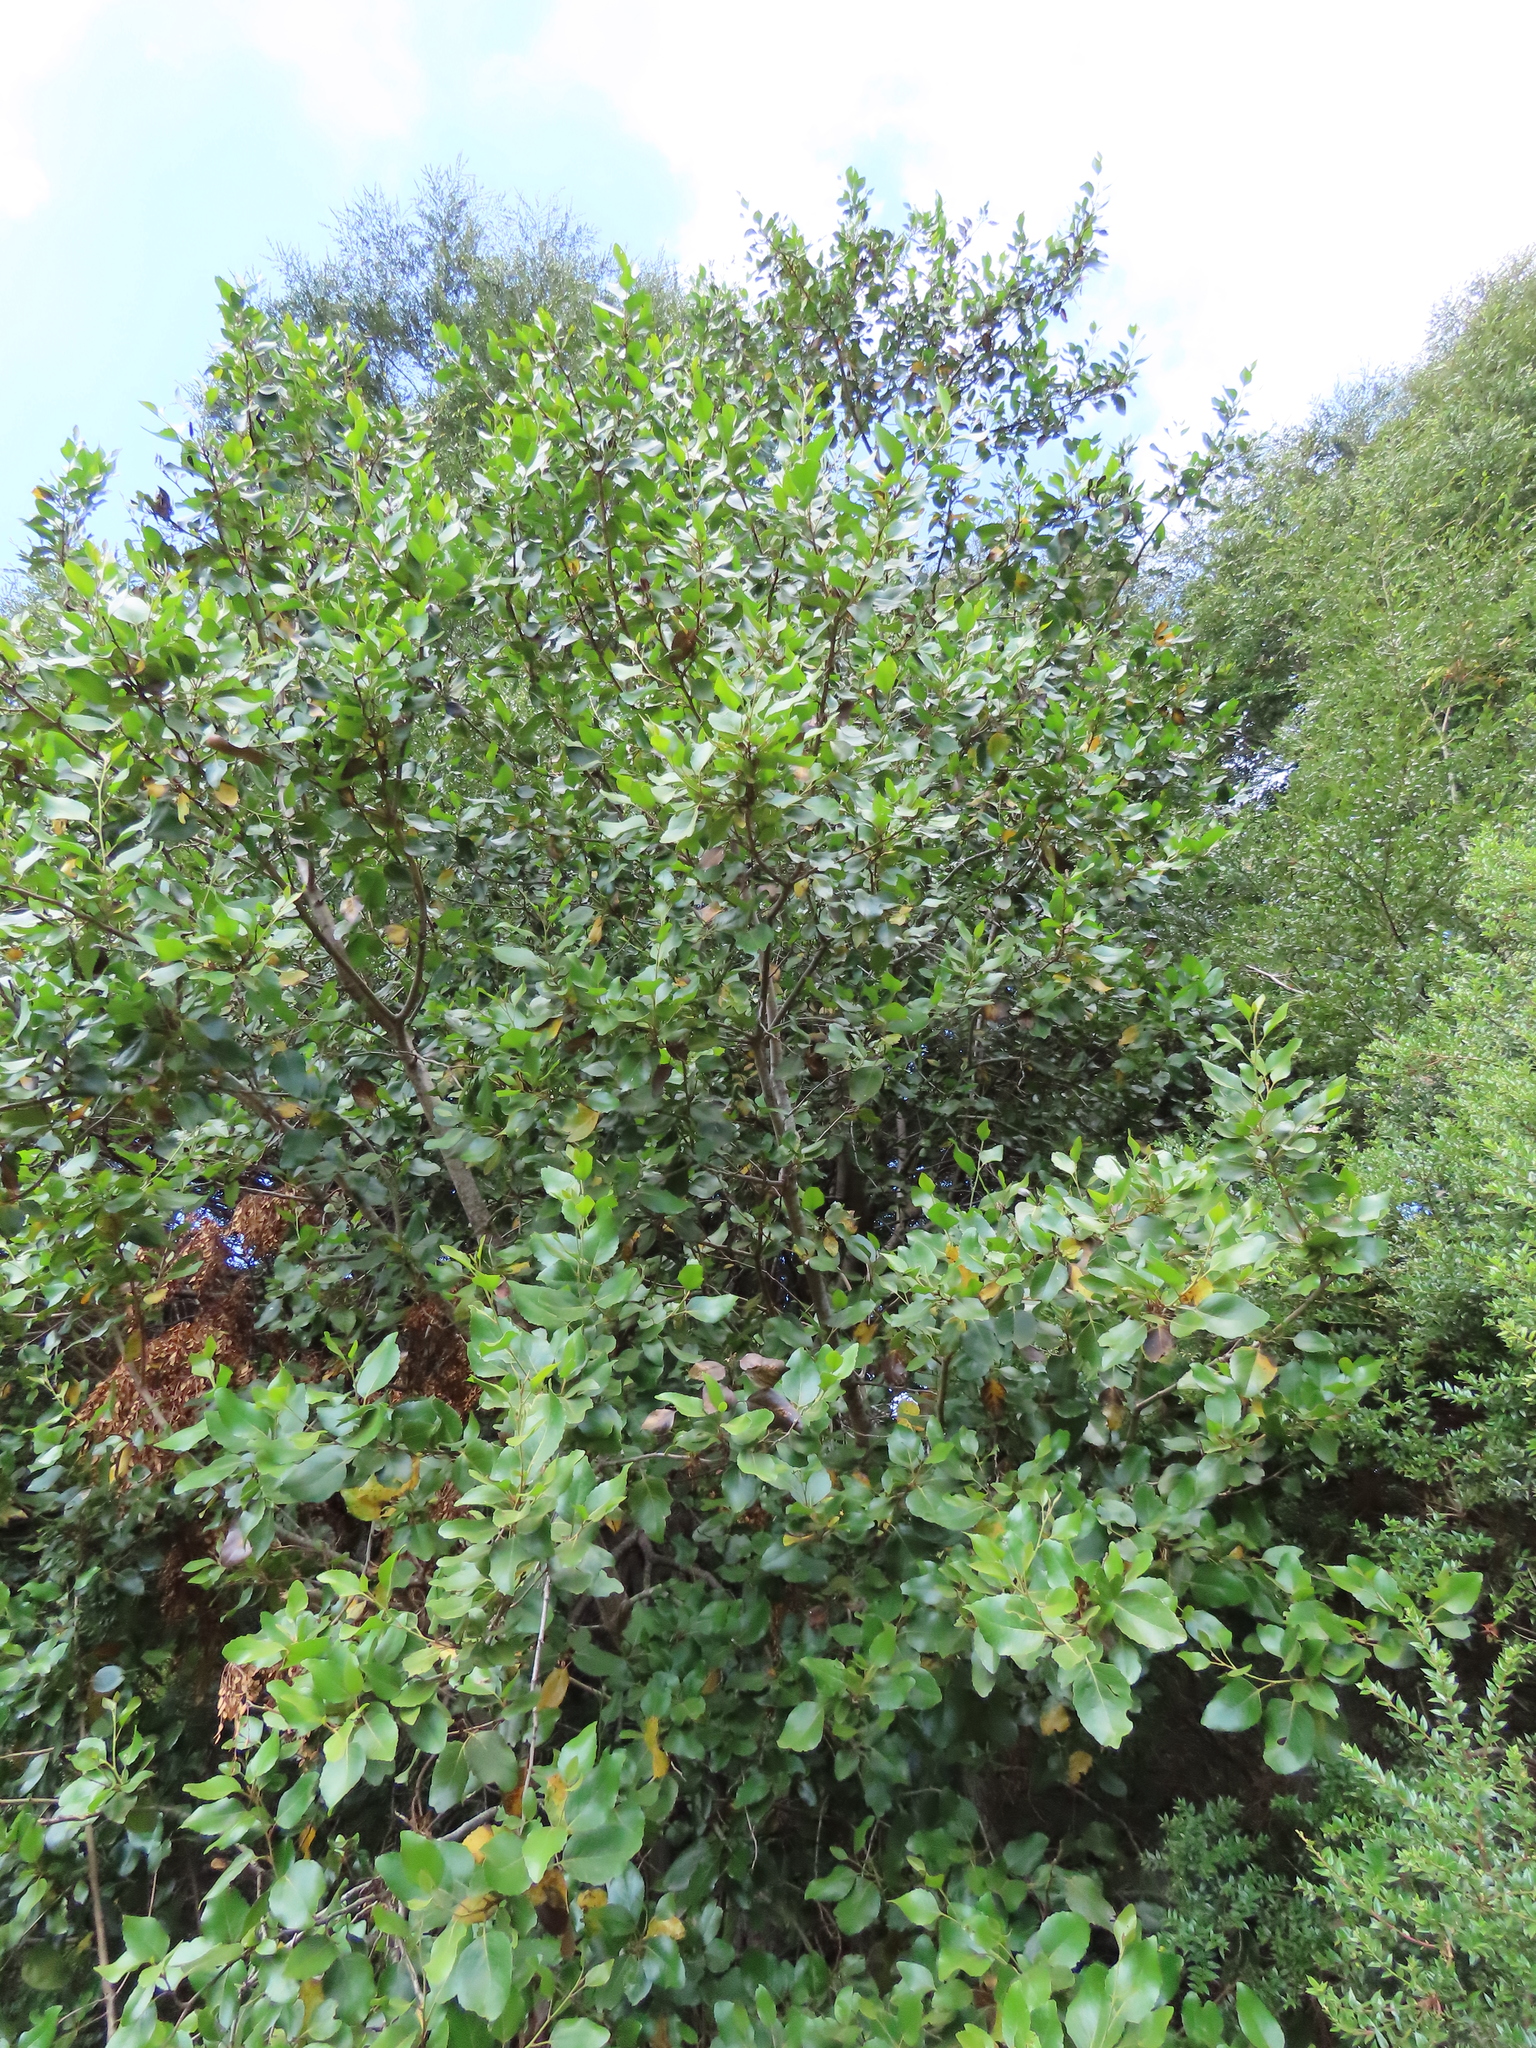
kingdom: Plantae
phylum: Tracheophyta
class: Magnoliopsida
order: Proteales
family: Proteaceae
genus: Lomatia
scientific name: Lomatia hirsuta
